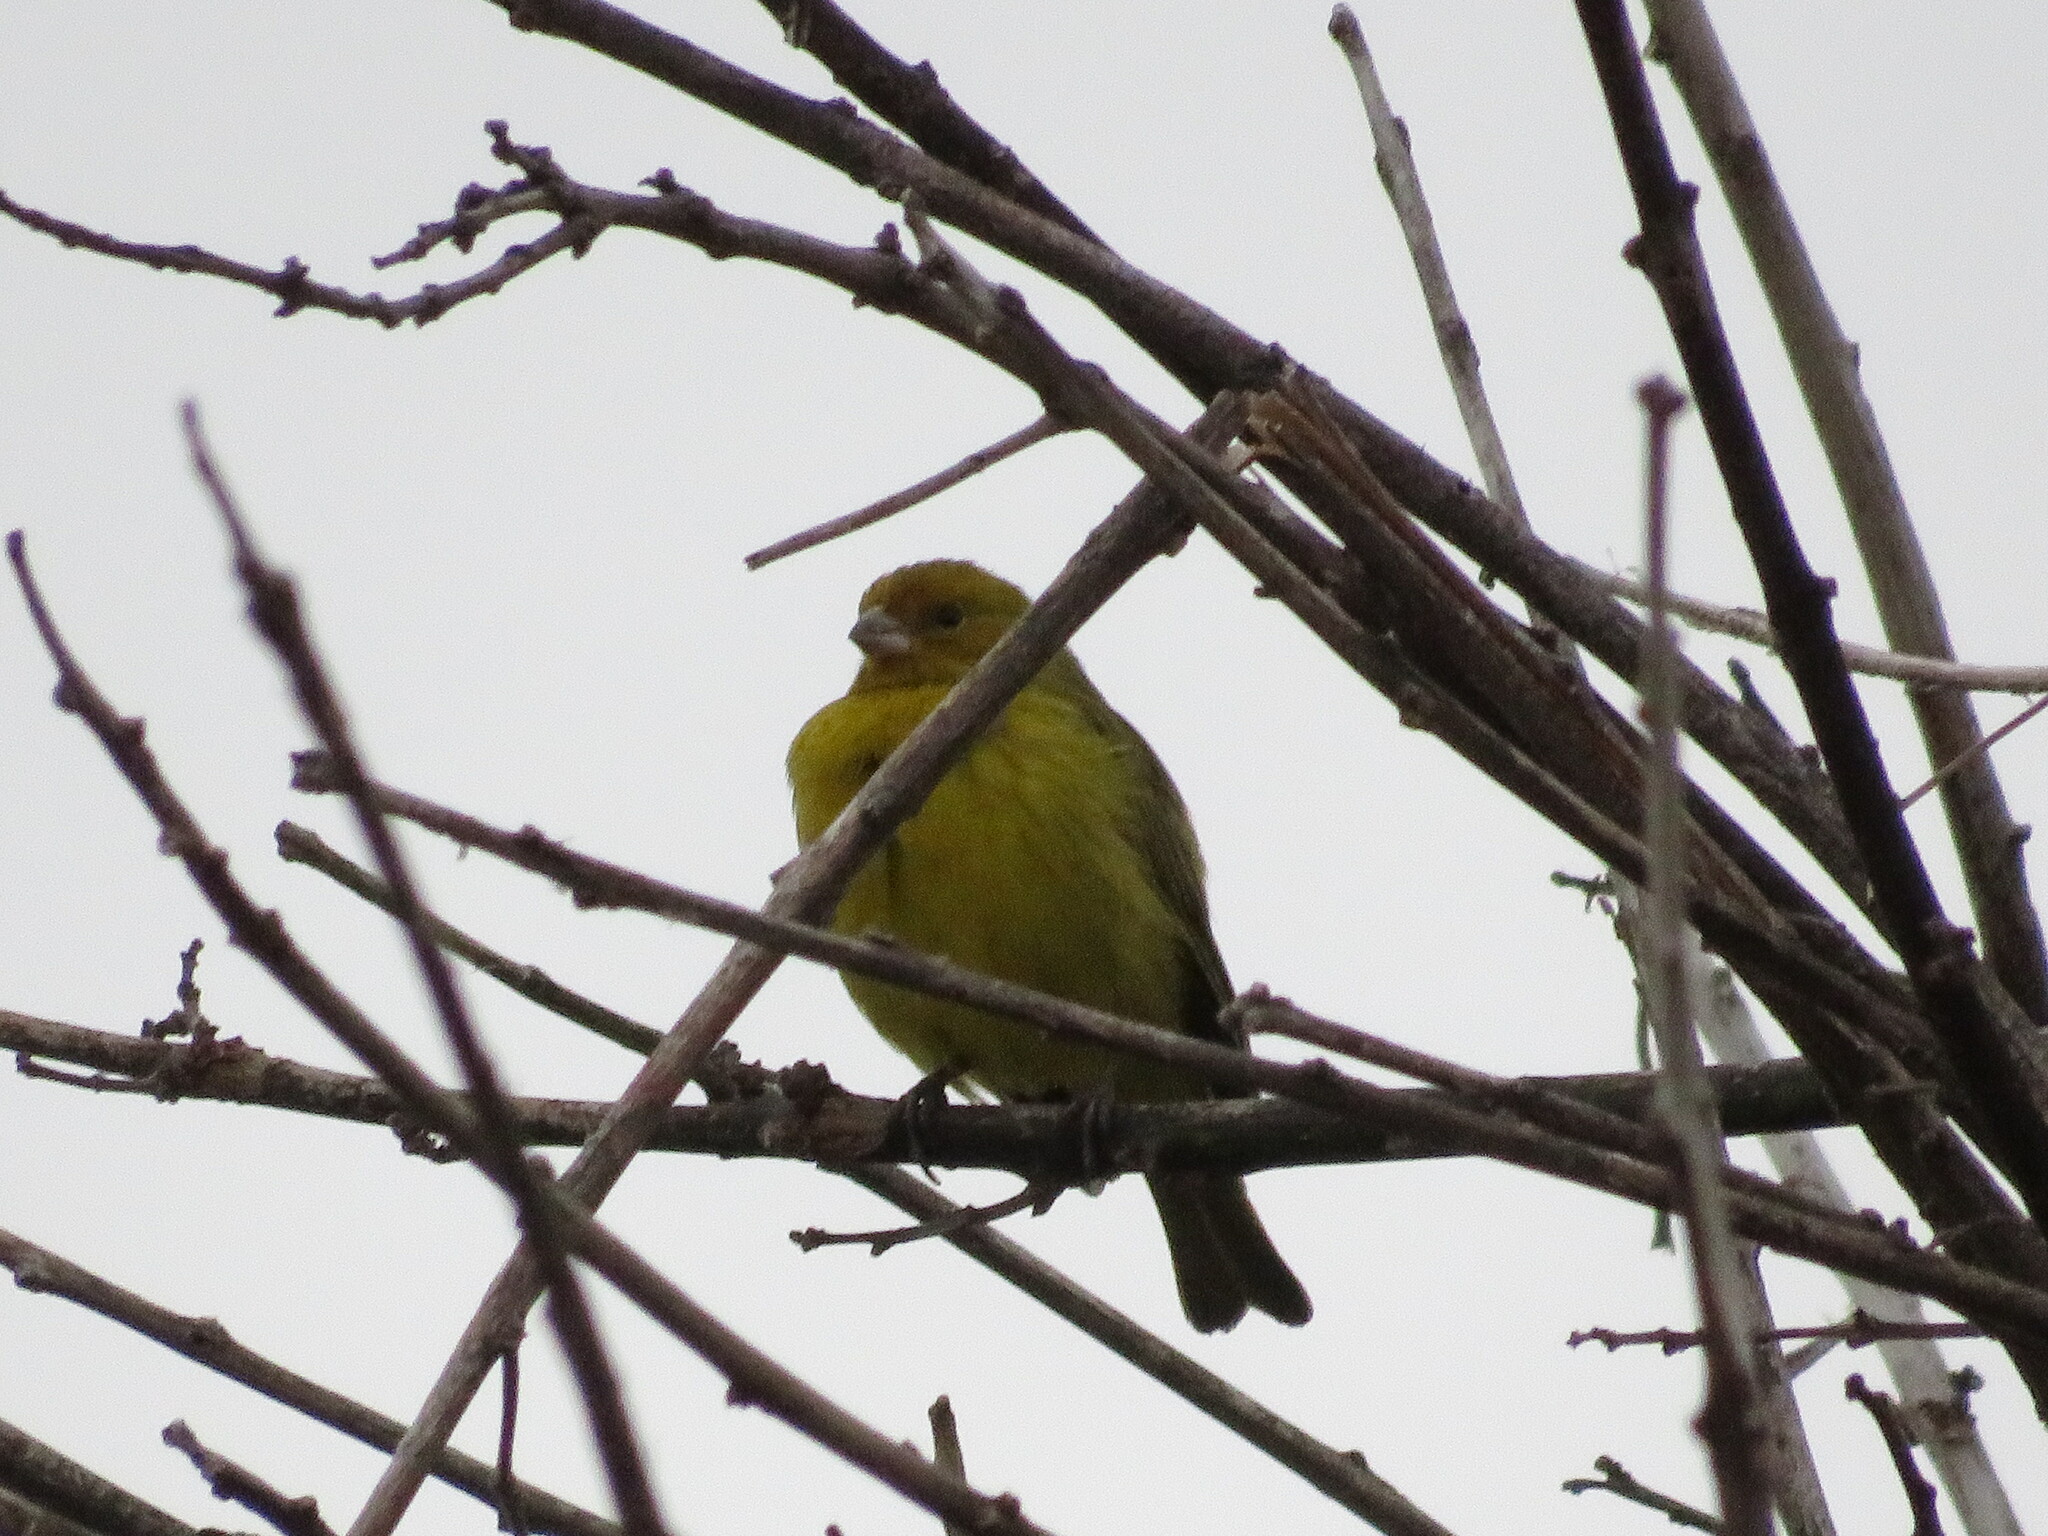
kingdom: Animalia
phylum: Chordata
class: Aves
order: Passeriformes
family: Thraupidae
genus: Sicalis
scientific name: Sicalis flaveola
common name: Saffron finch
